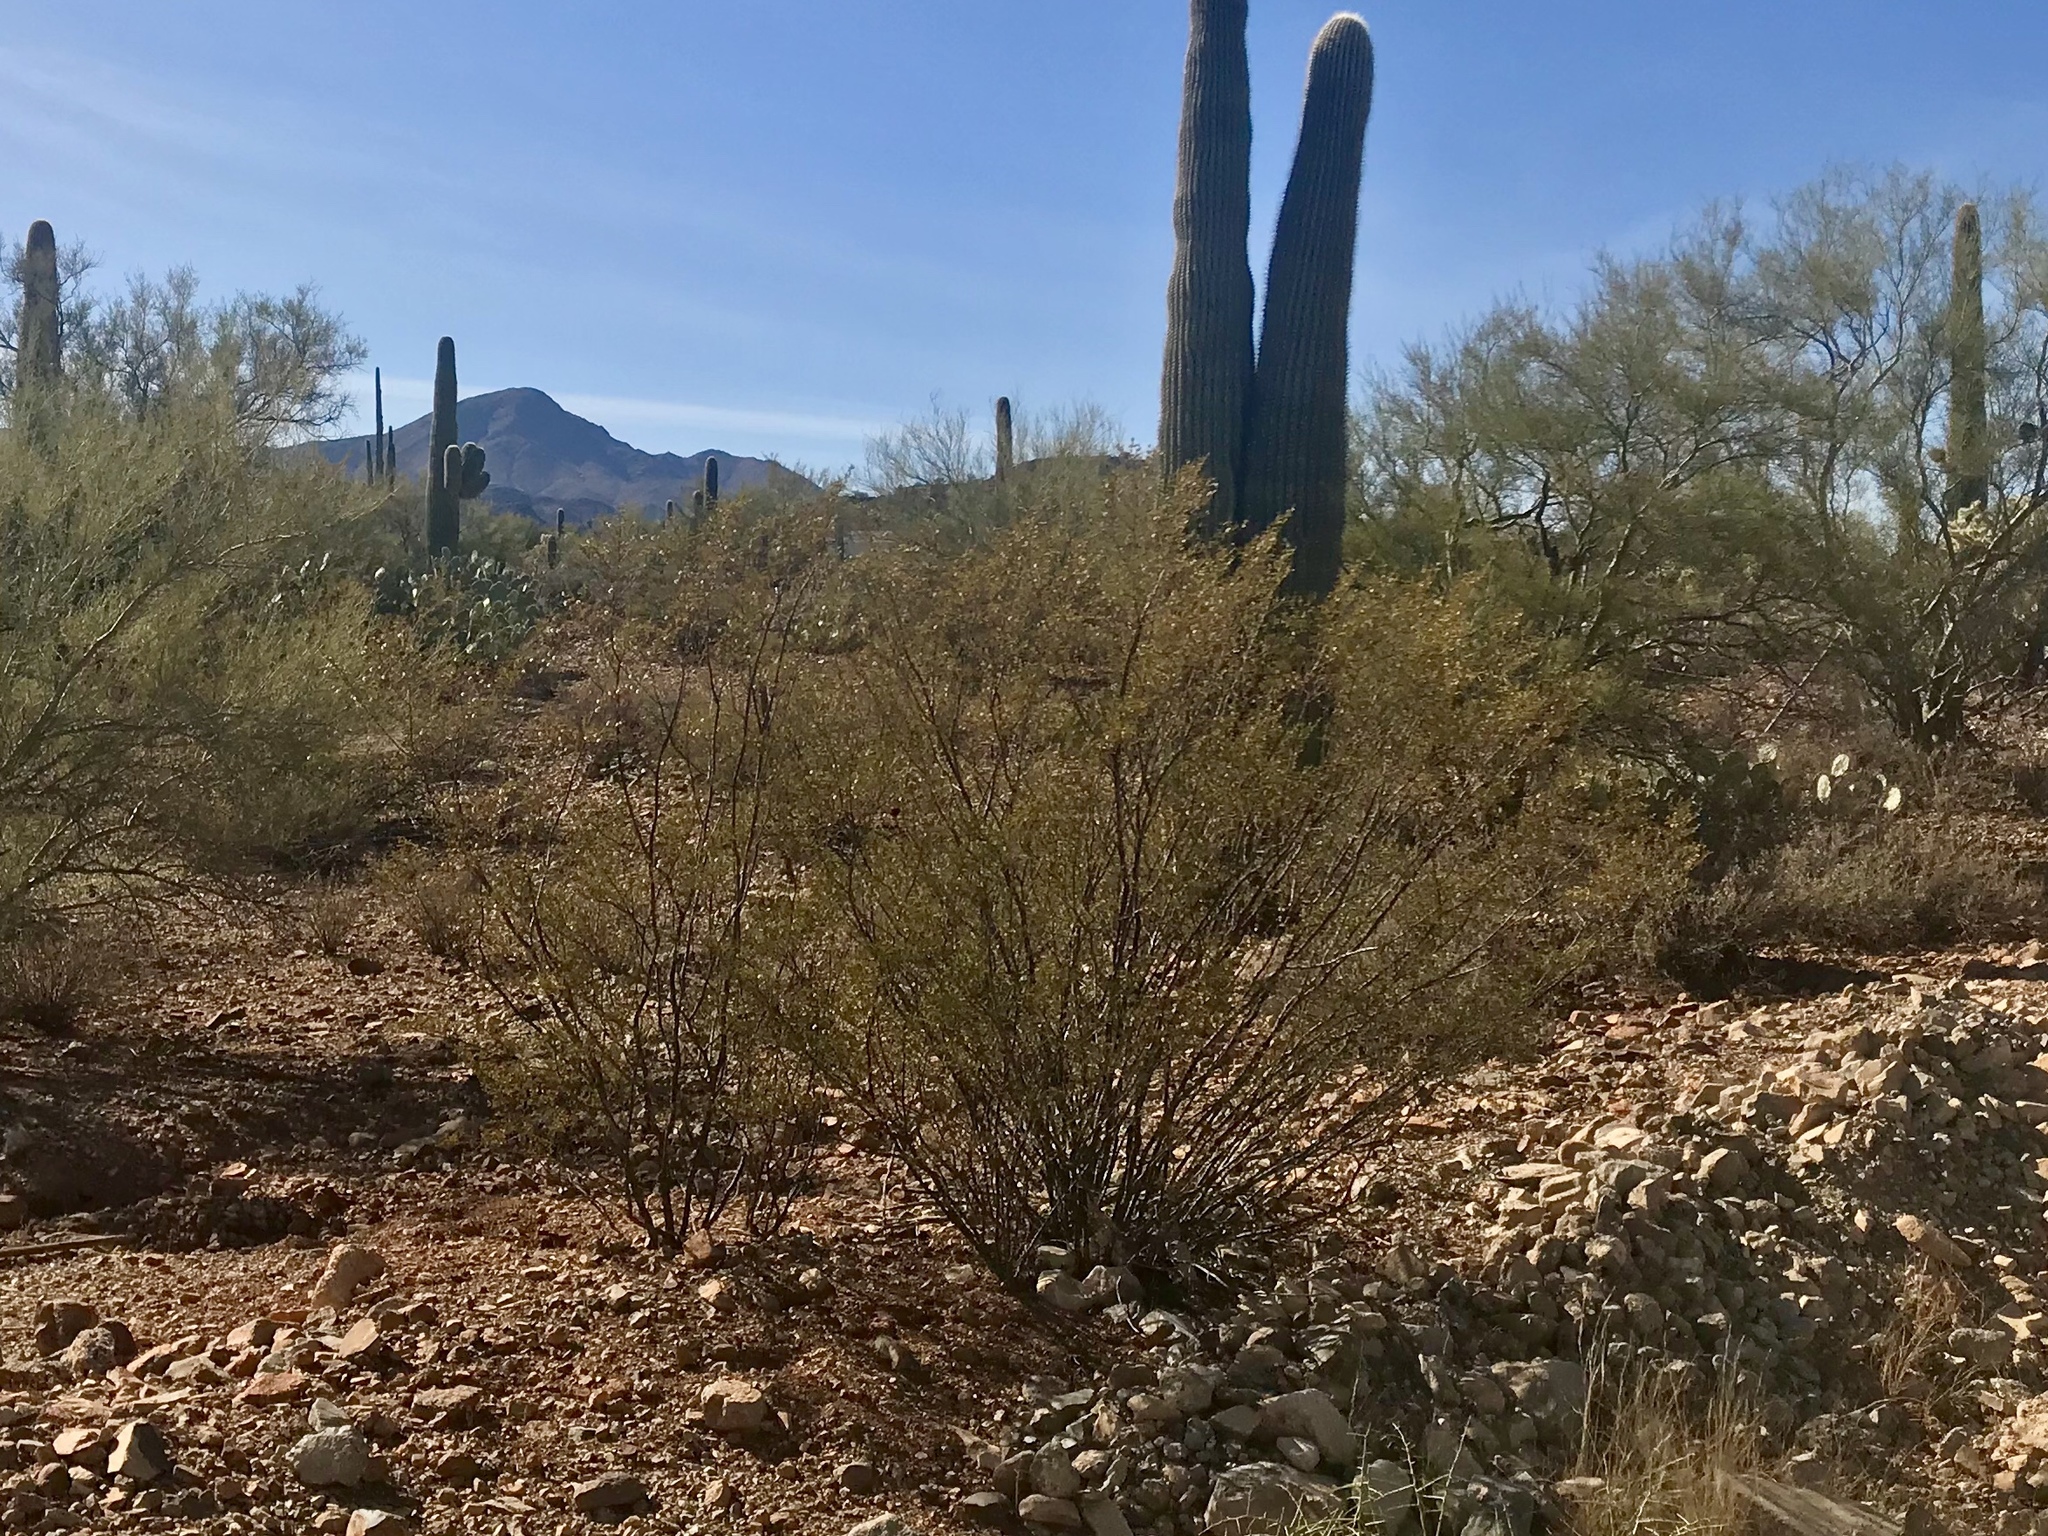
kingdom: Plantae
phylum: Tracheophyta
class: Magnoliopsida
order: Zygophyllales
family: Zygophyllaceae
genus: Larrea
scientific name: Larrea tridentata
